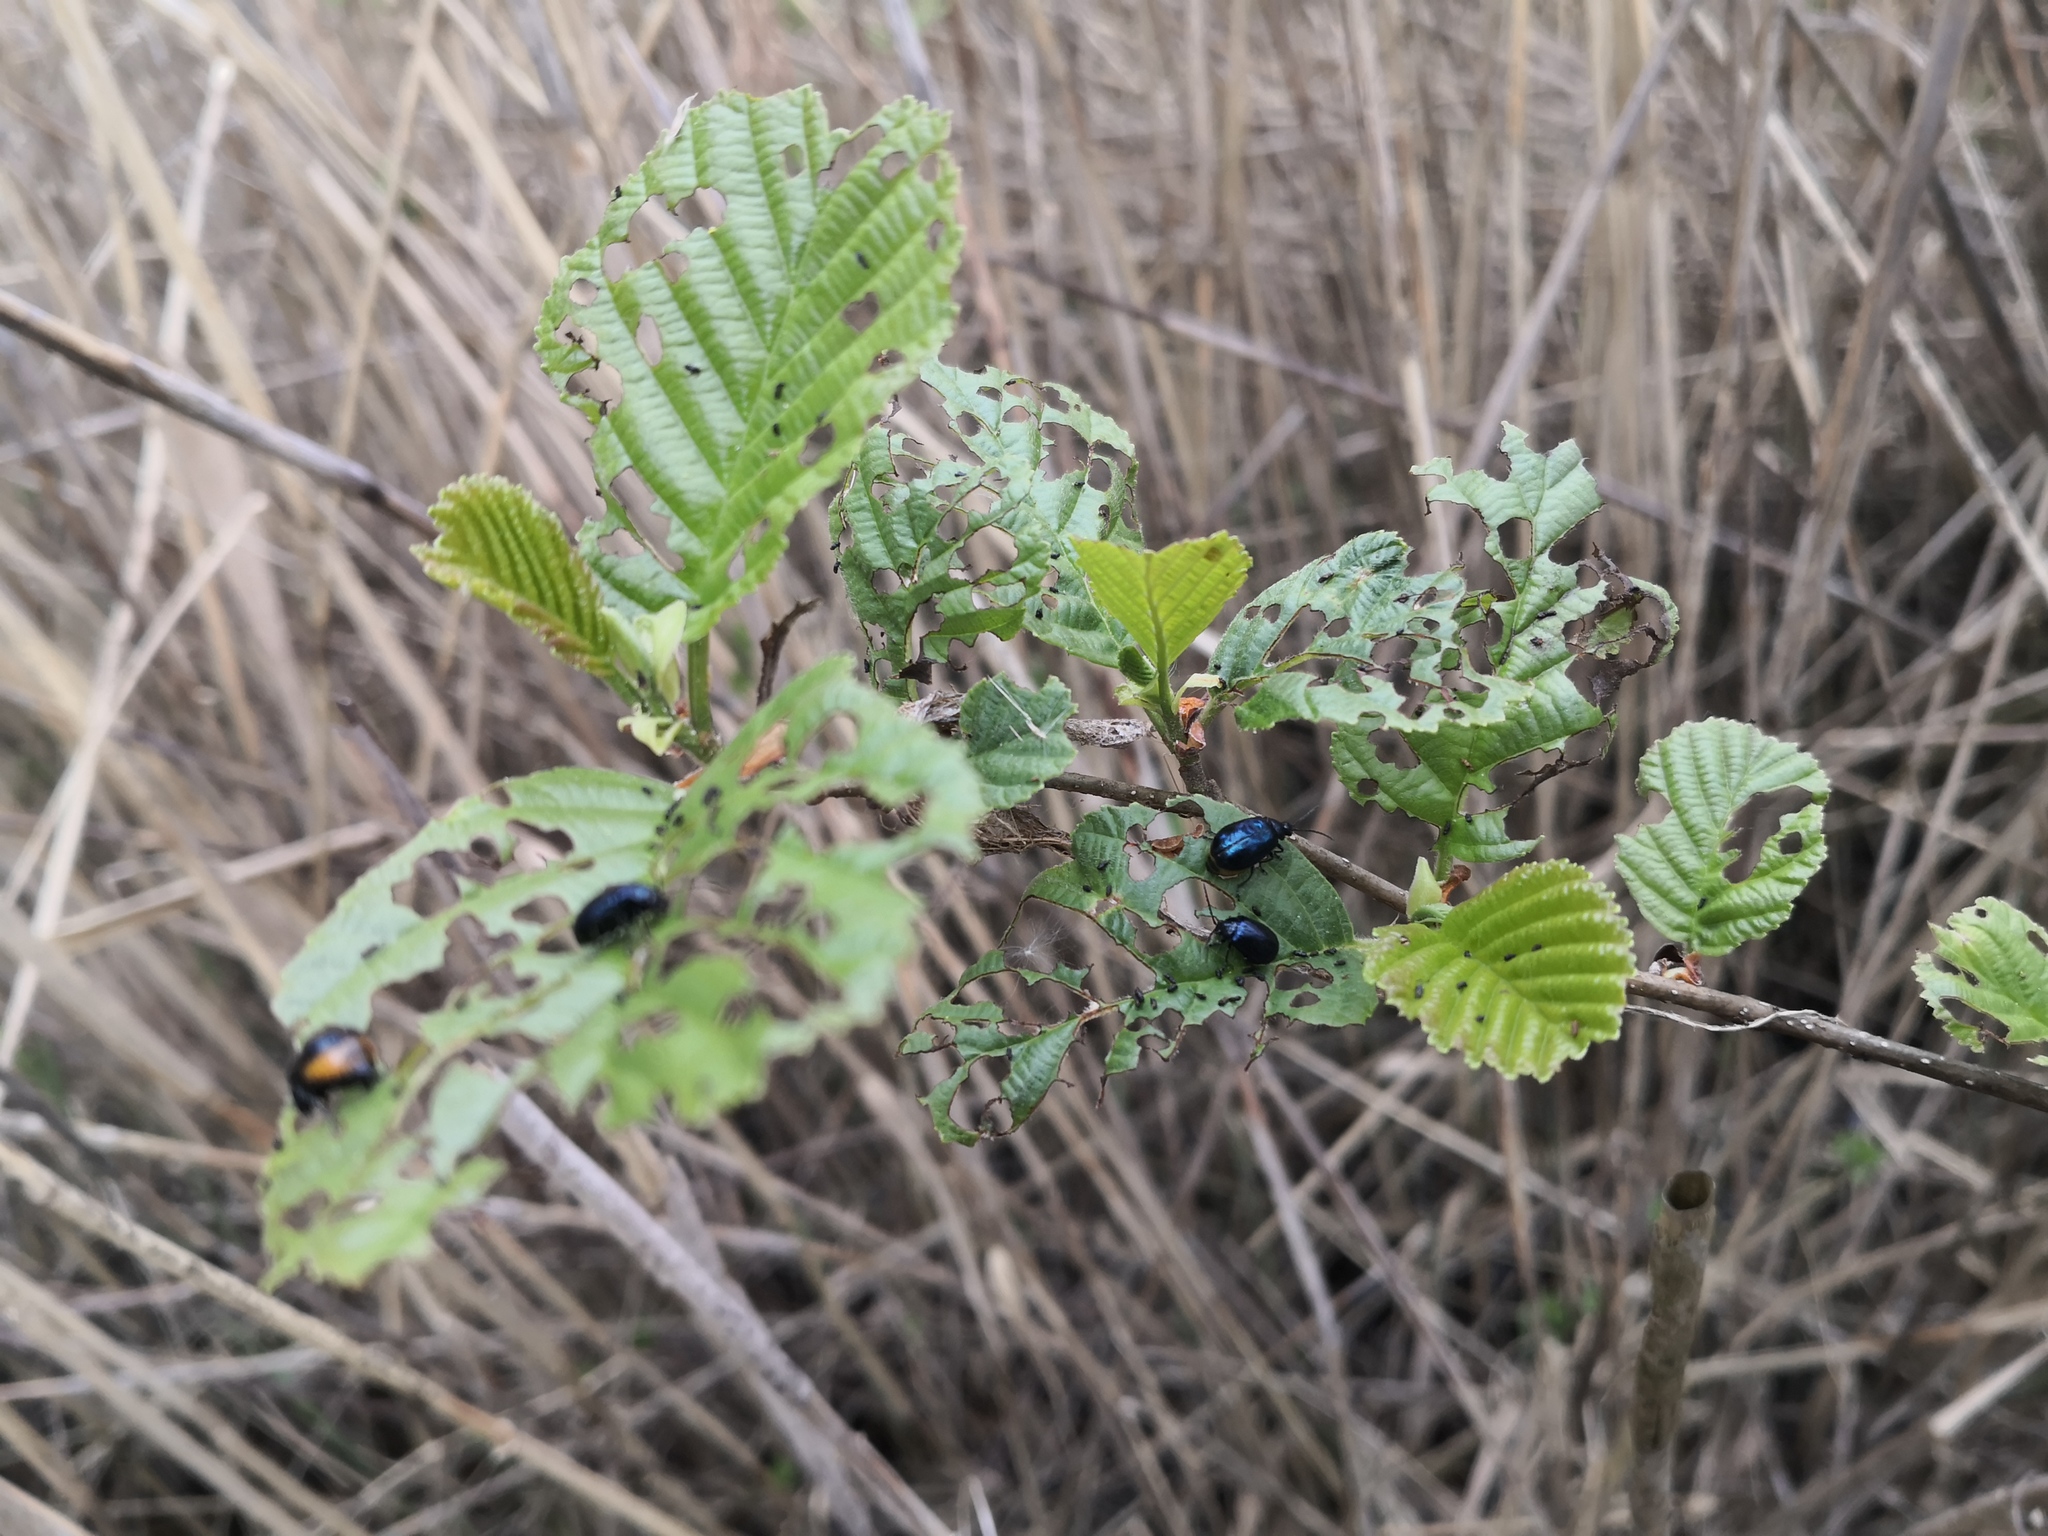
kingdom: Animalia
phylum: Arthropoda
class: Insecta
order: Coleoptera
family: Chrysomelidae
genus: Agelastica
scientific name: Agelastica alni
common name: Alder leaf beetle
